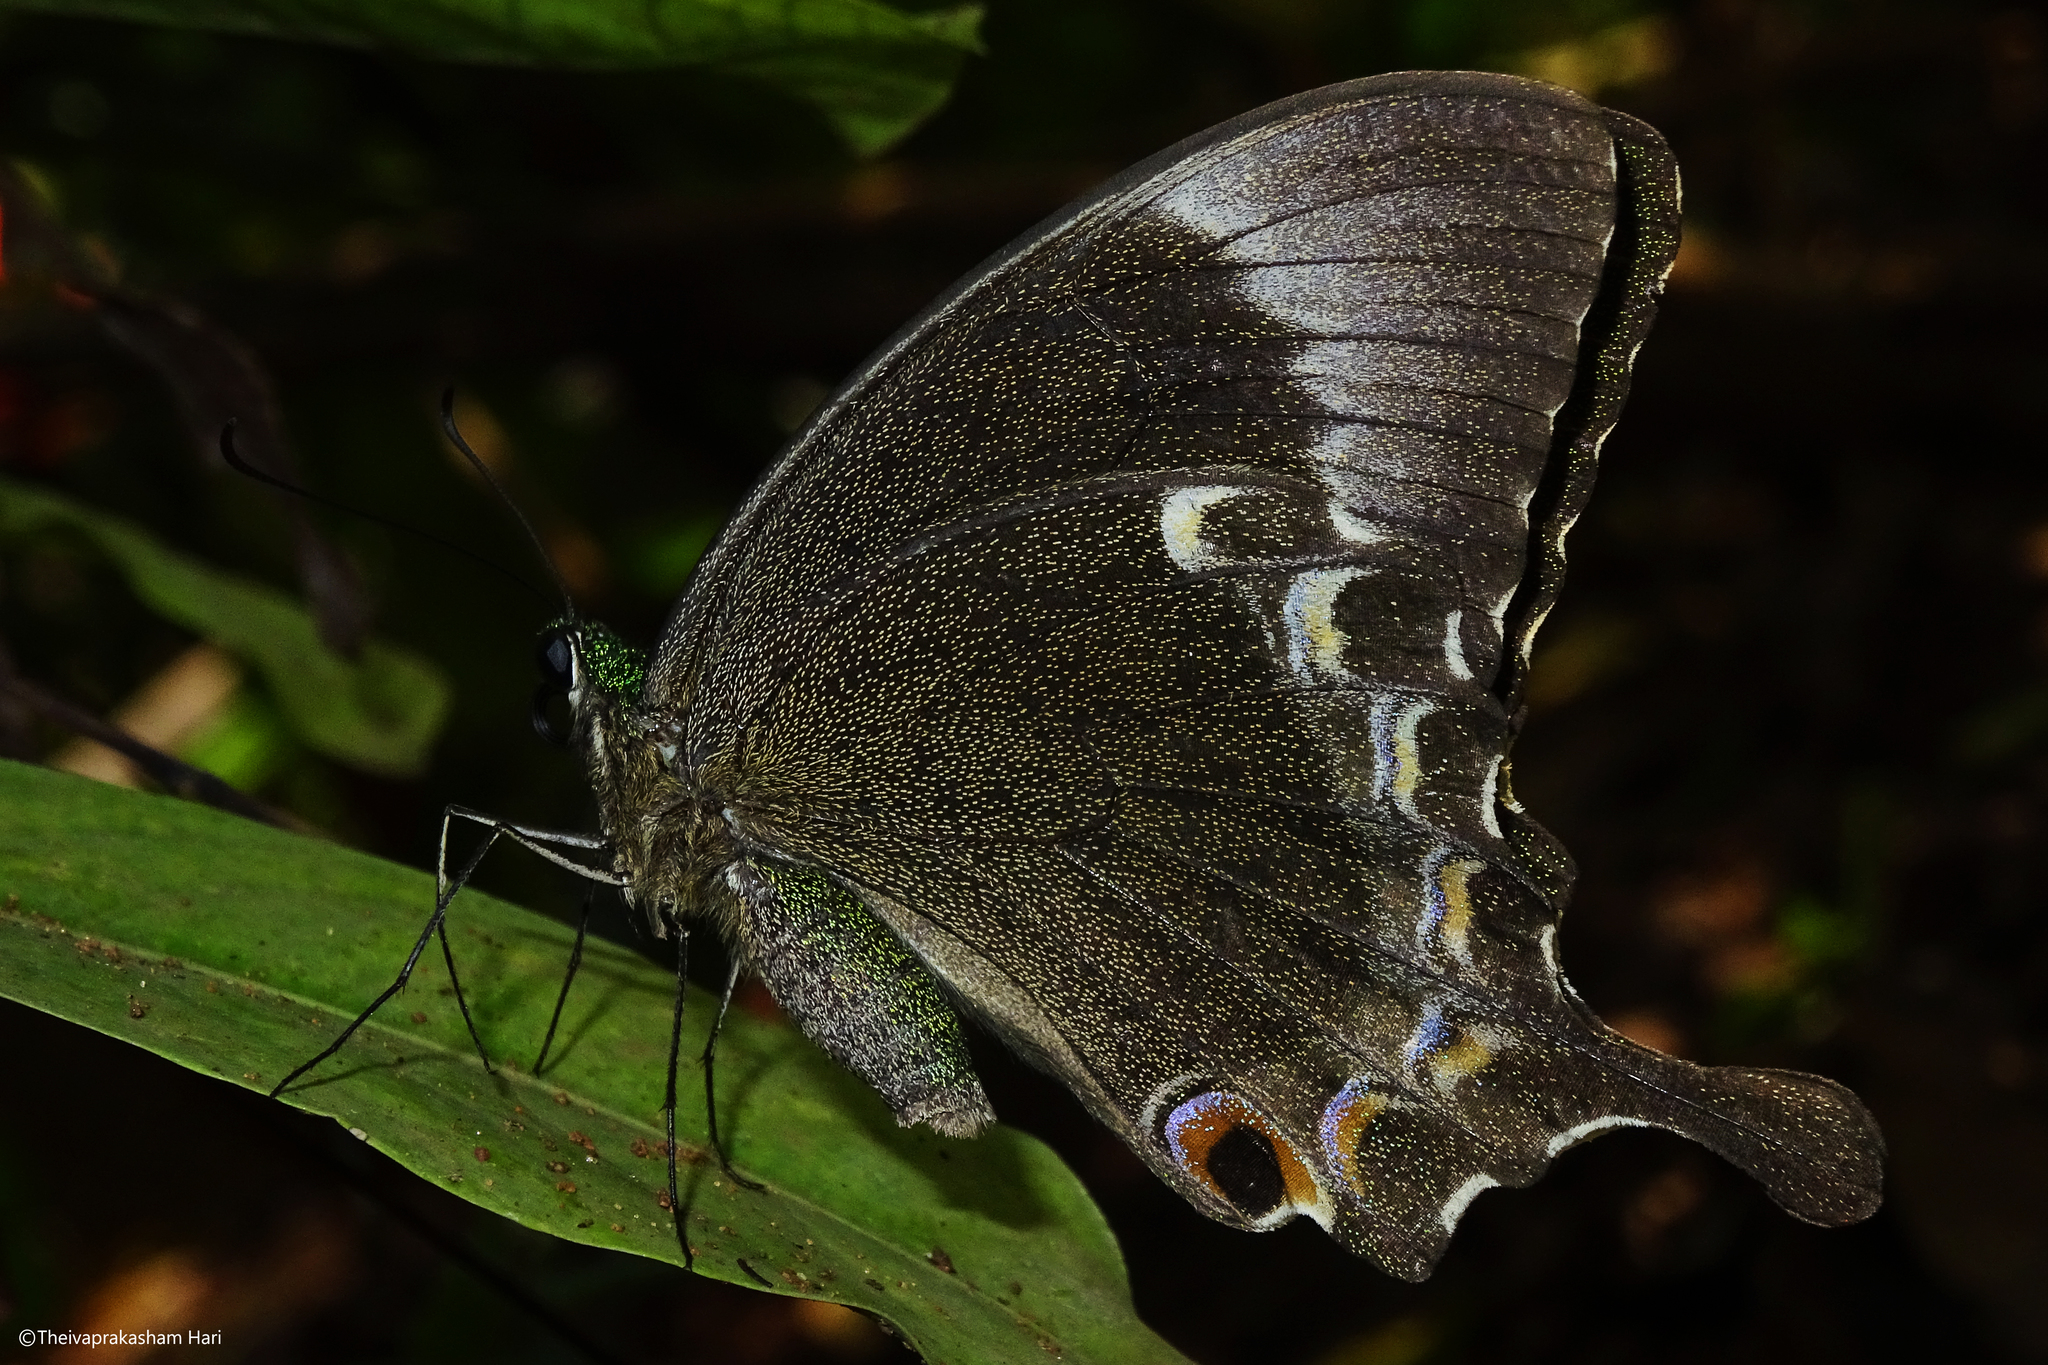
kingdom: Animalia
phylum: Arthropoda
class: Insecta
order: Lepidoptera
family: Papilionidae
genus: Papilio
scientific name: Papilio crino
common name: Common banded peacock
